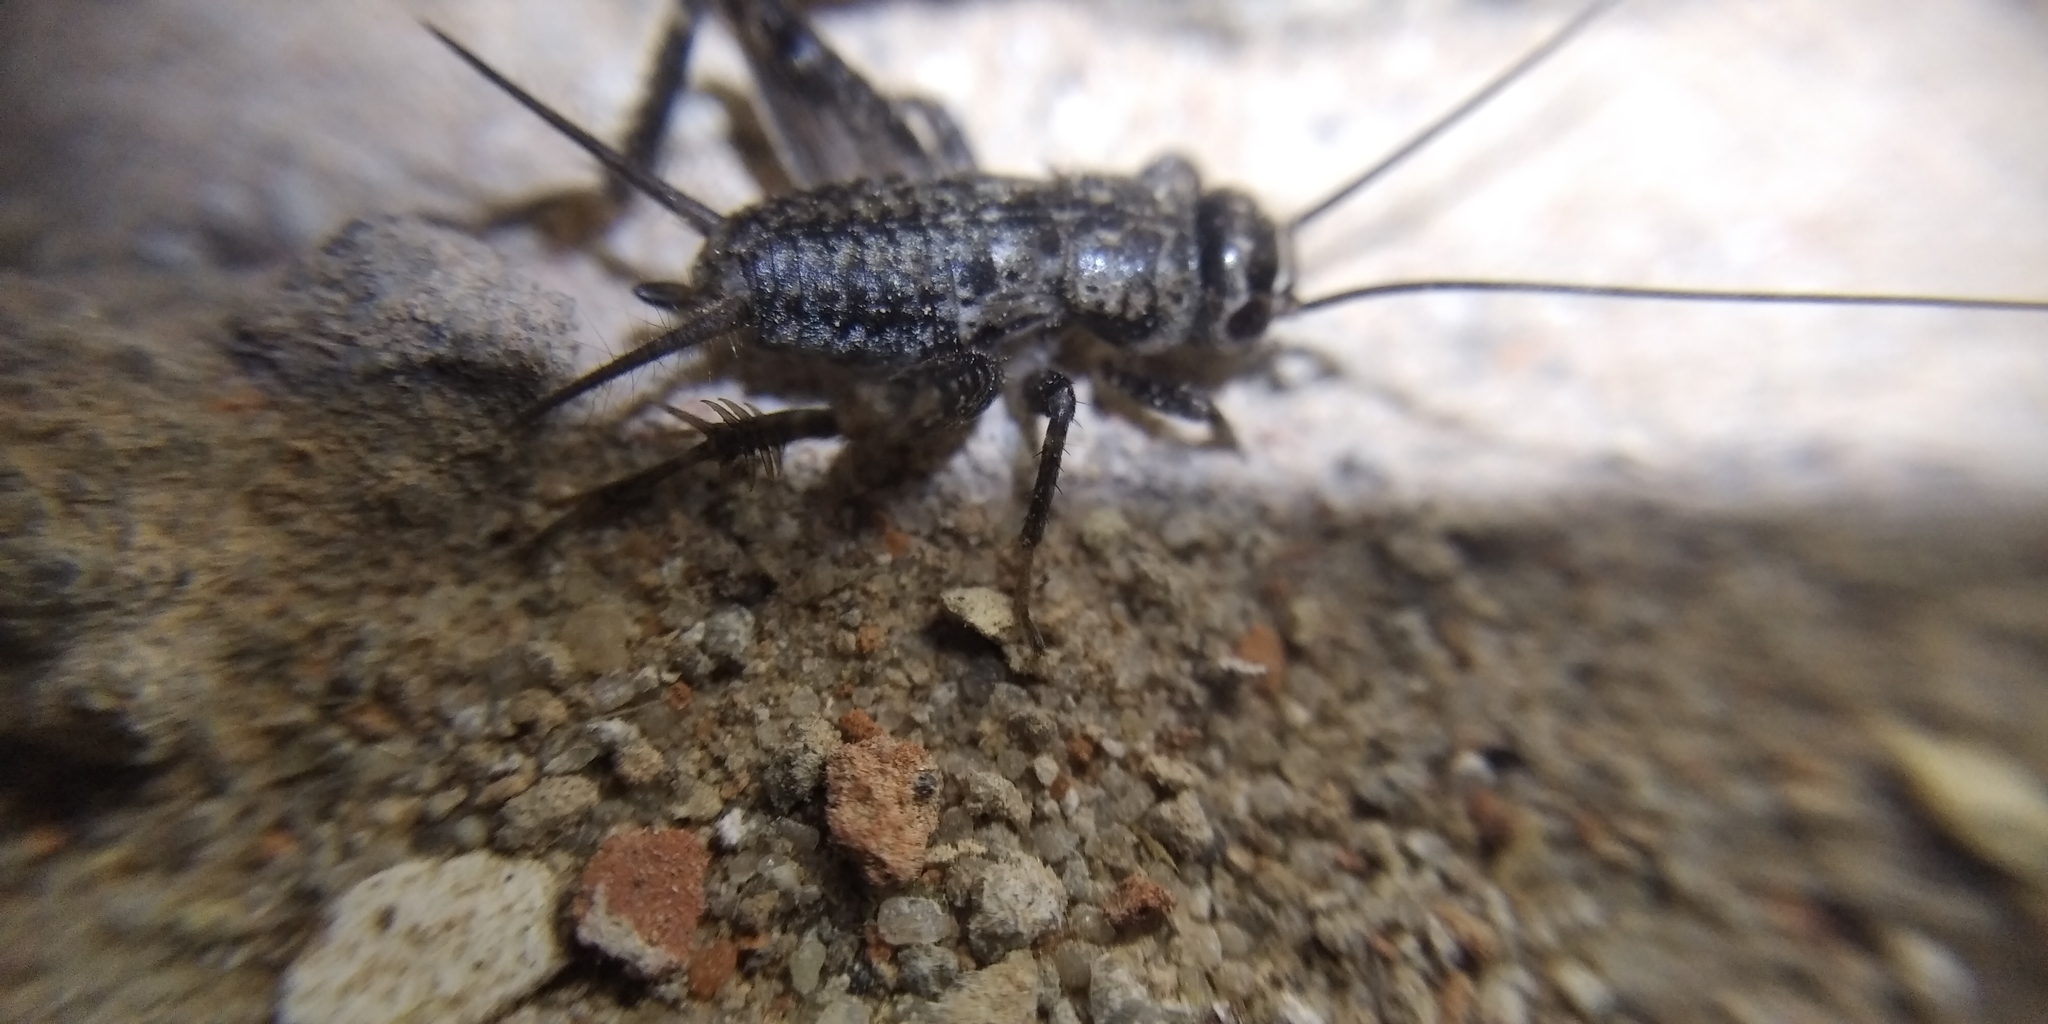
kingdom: Animalia
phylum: Arthropoda
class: Insecta
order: Orthoptera
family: Gryllidae
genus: Modicogryllus
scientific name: Modicogryllus frontalis
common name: Eastern cricket
